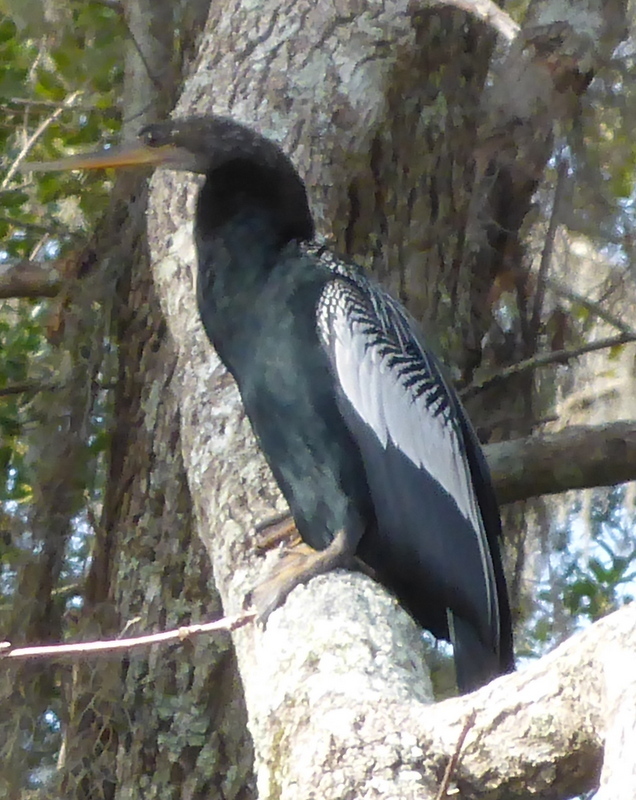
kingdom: Animalia
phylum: Chordata
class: Aves
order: Suliformes
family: Anhingidae
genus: Anhinga
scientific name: Anhinga anhinga
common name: Anhinga
